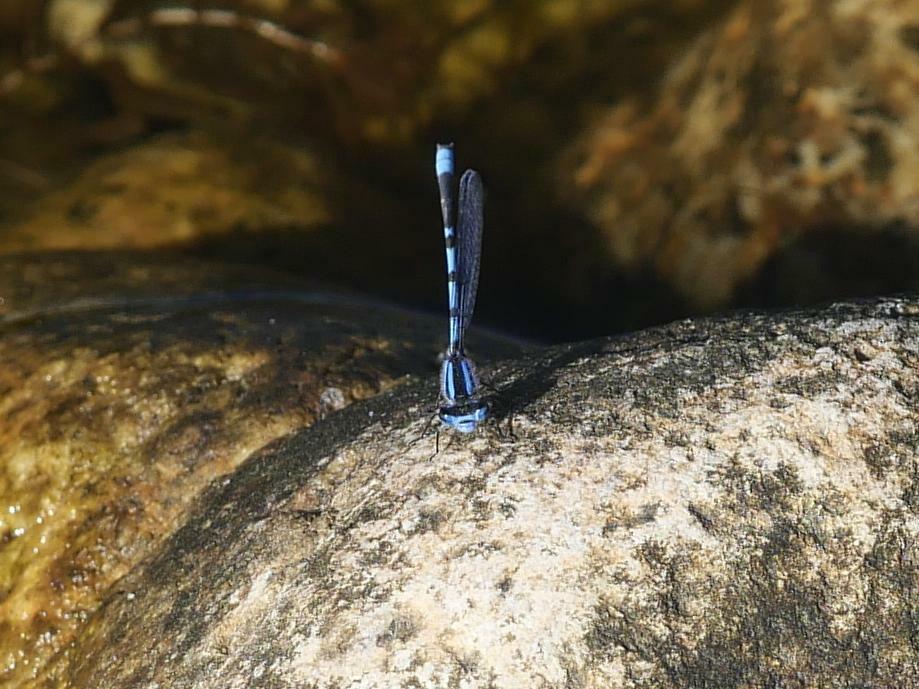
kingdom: Animalia
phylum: Arthropoda
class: Insecta
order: Odonata
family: Coenagrionidae
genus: Enallagma
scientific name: Enallagma civile
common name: Damselfly
